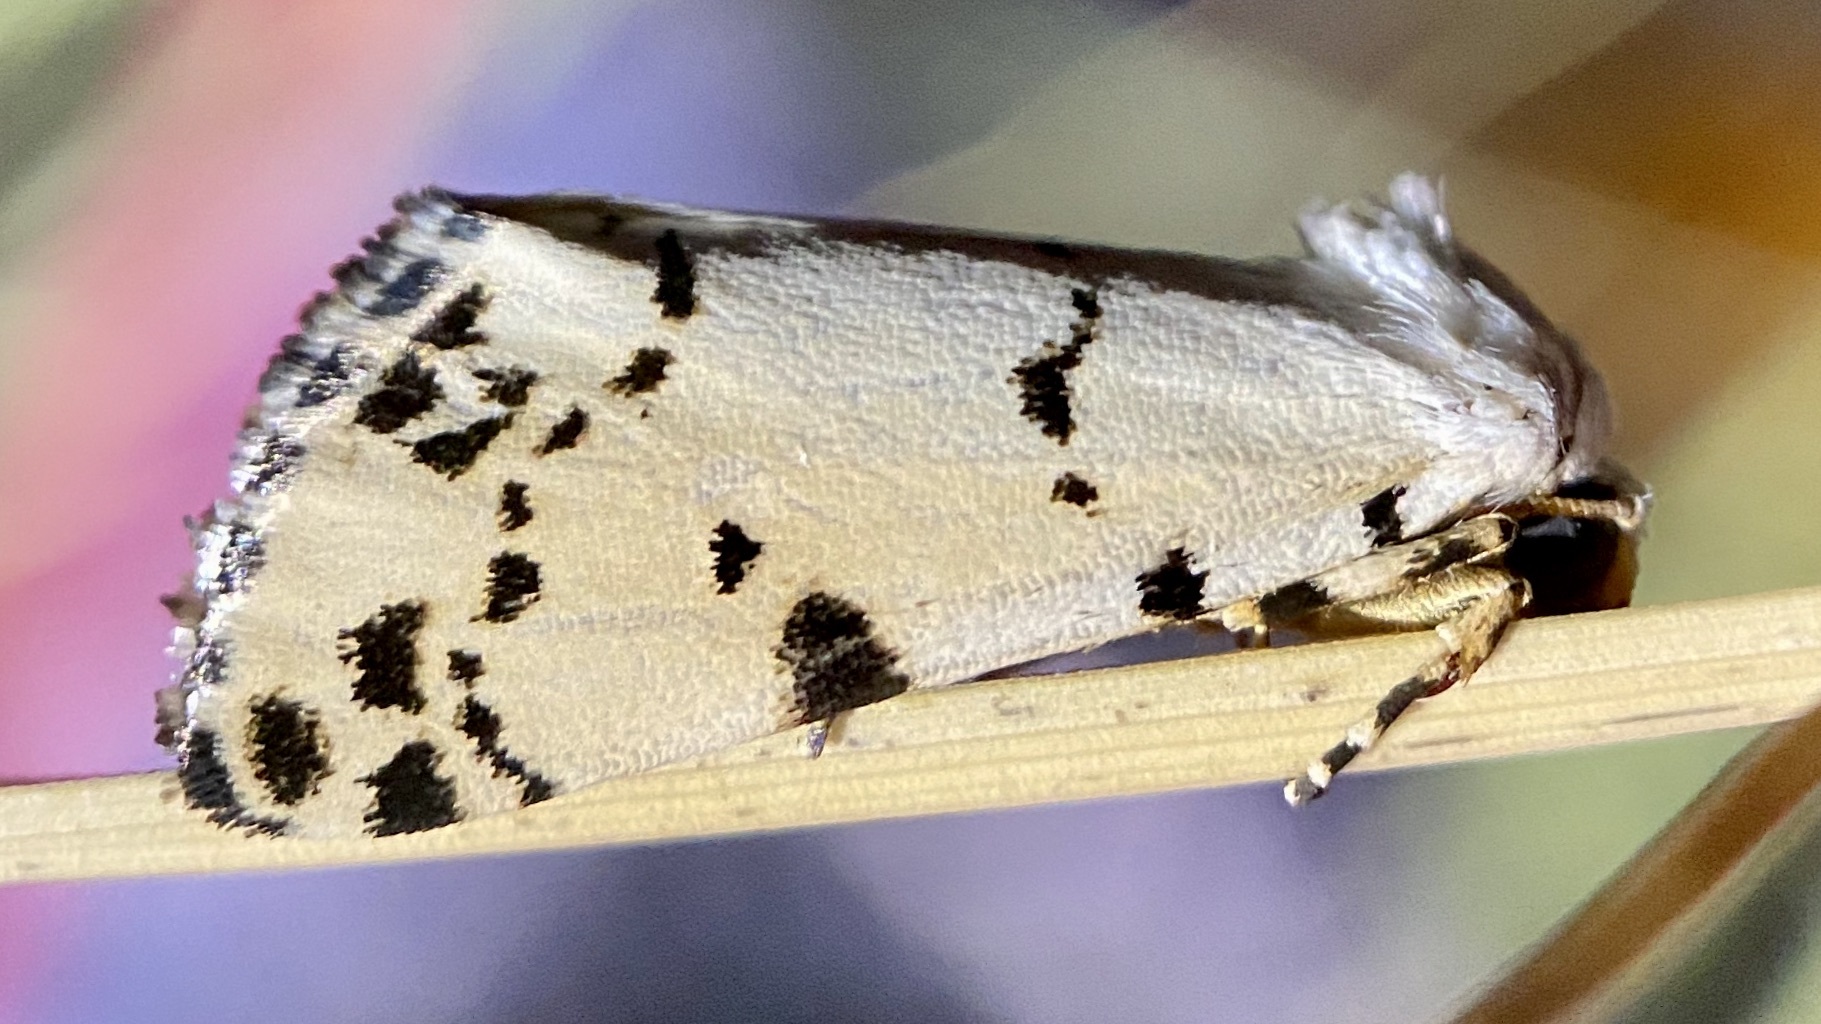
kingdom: Animalia
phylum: Arthropoda
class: Insecta
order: Lepidoptera
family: Noctuidae
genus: Grotella
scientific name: Grotella soror
